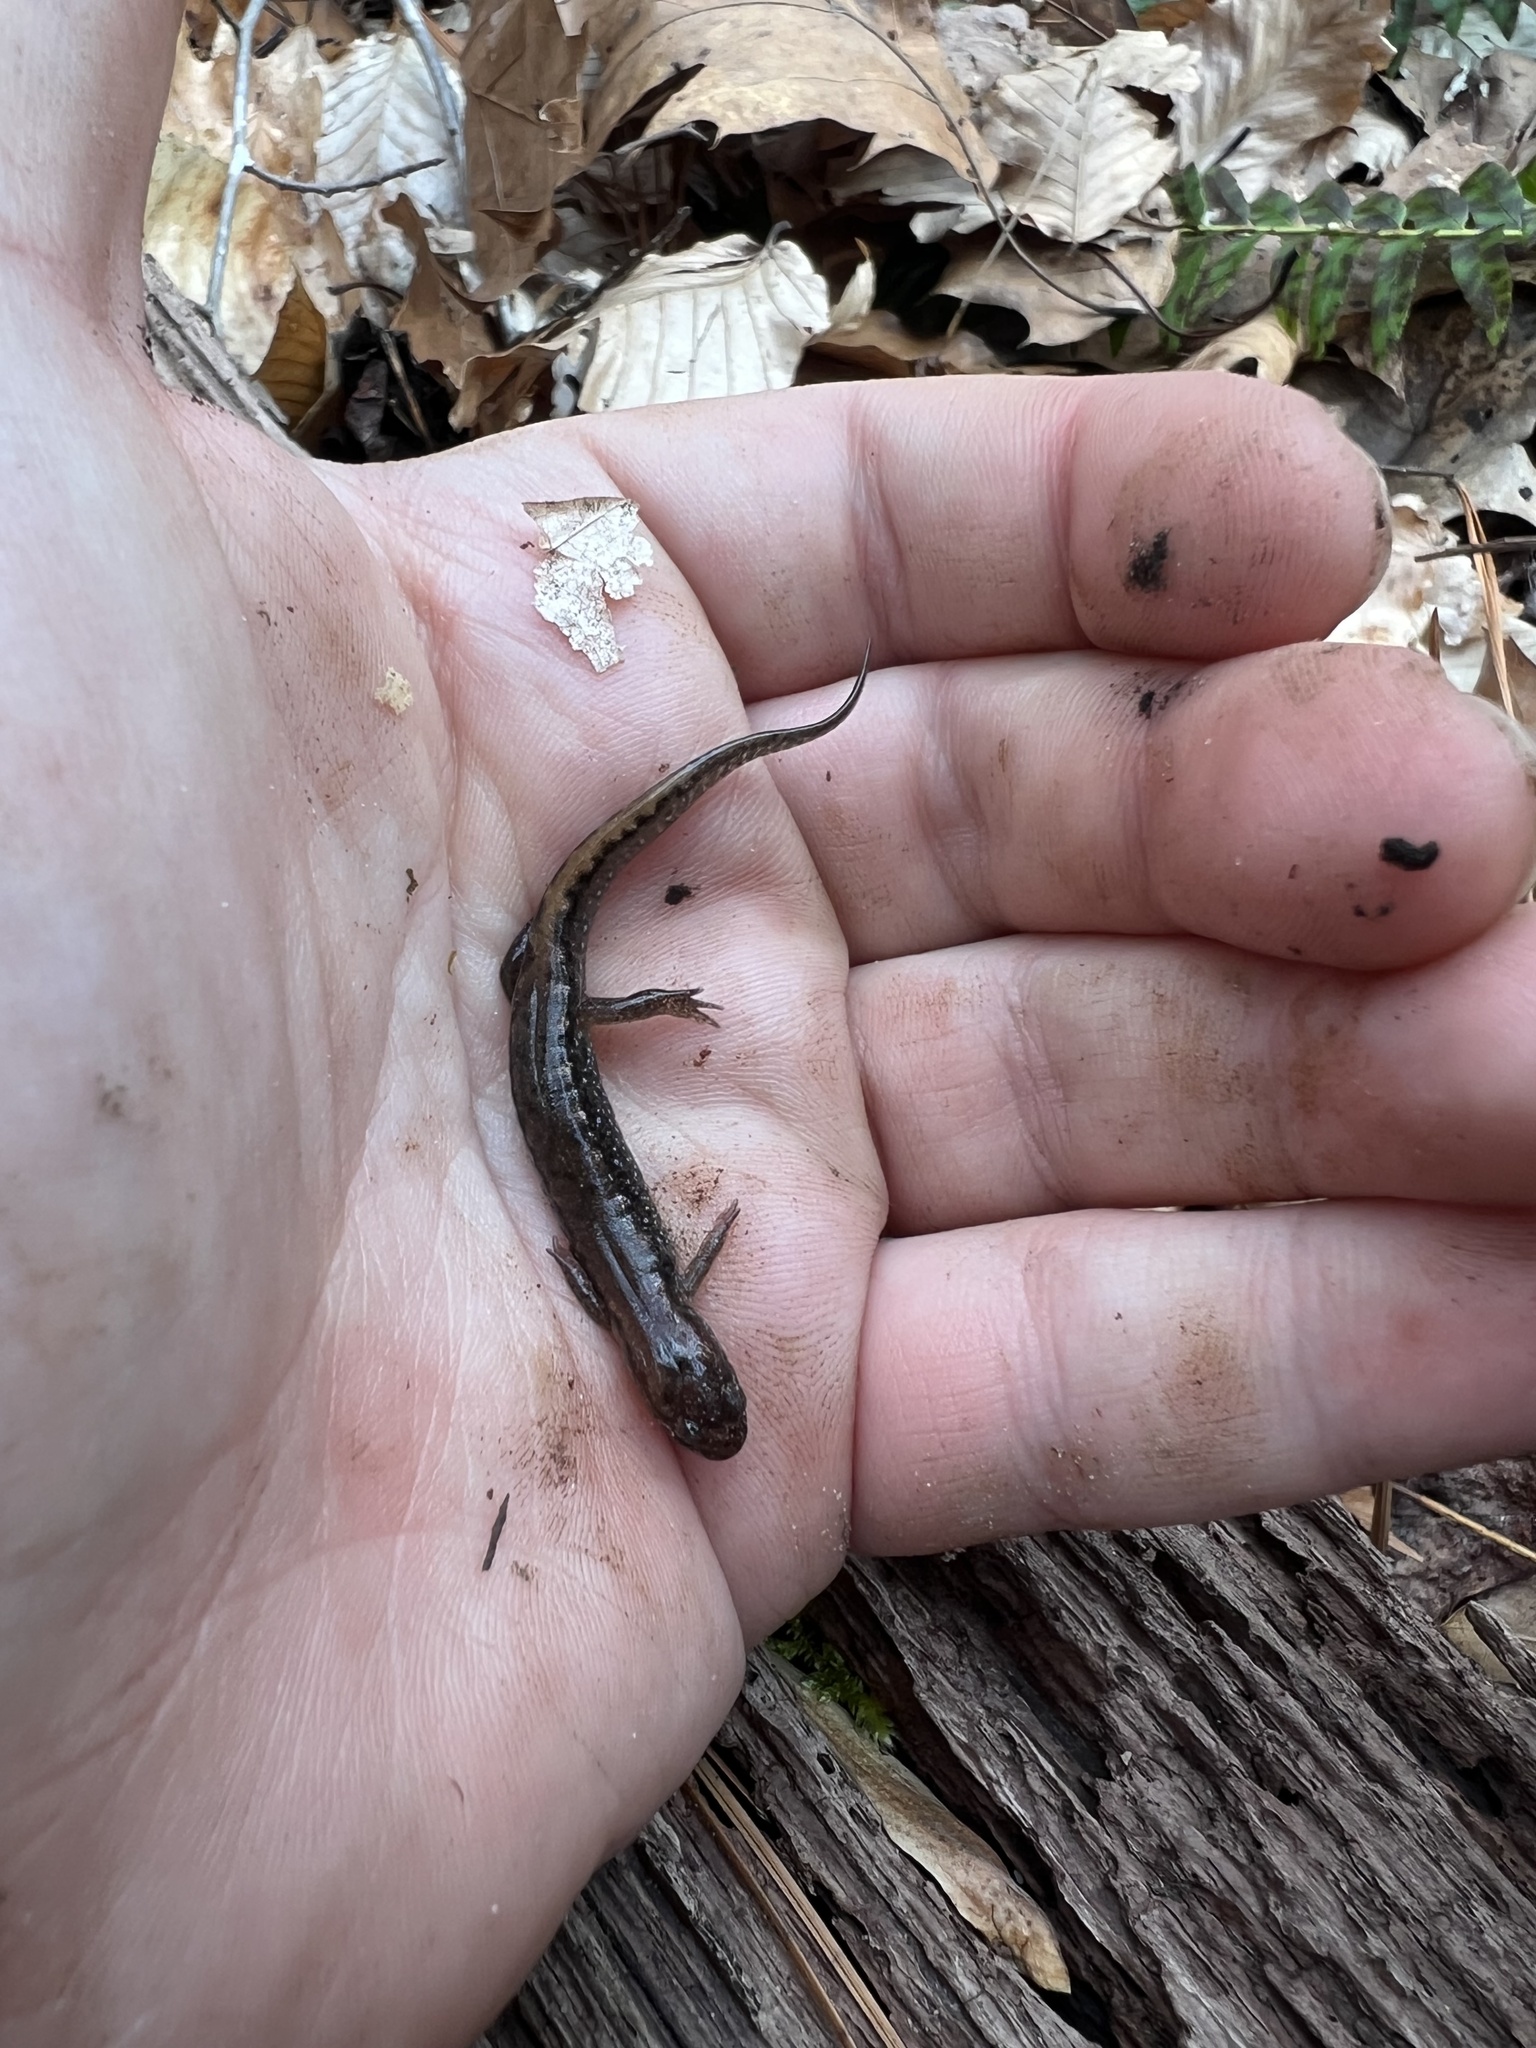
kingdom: Animalia
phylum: Chordata
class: Amphibia
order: Caudata
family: Plethodontidae
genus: Desmognathus
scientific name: Desmognathus
